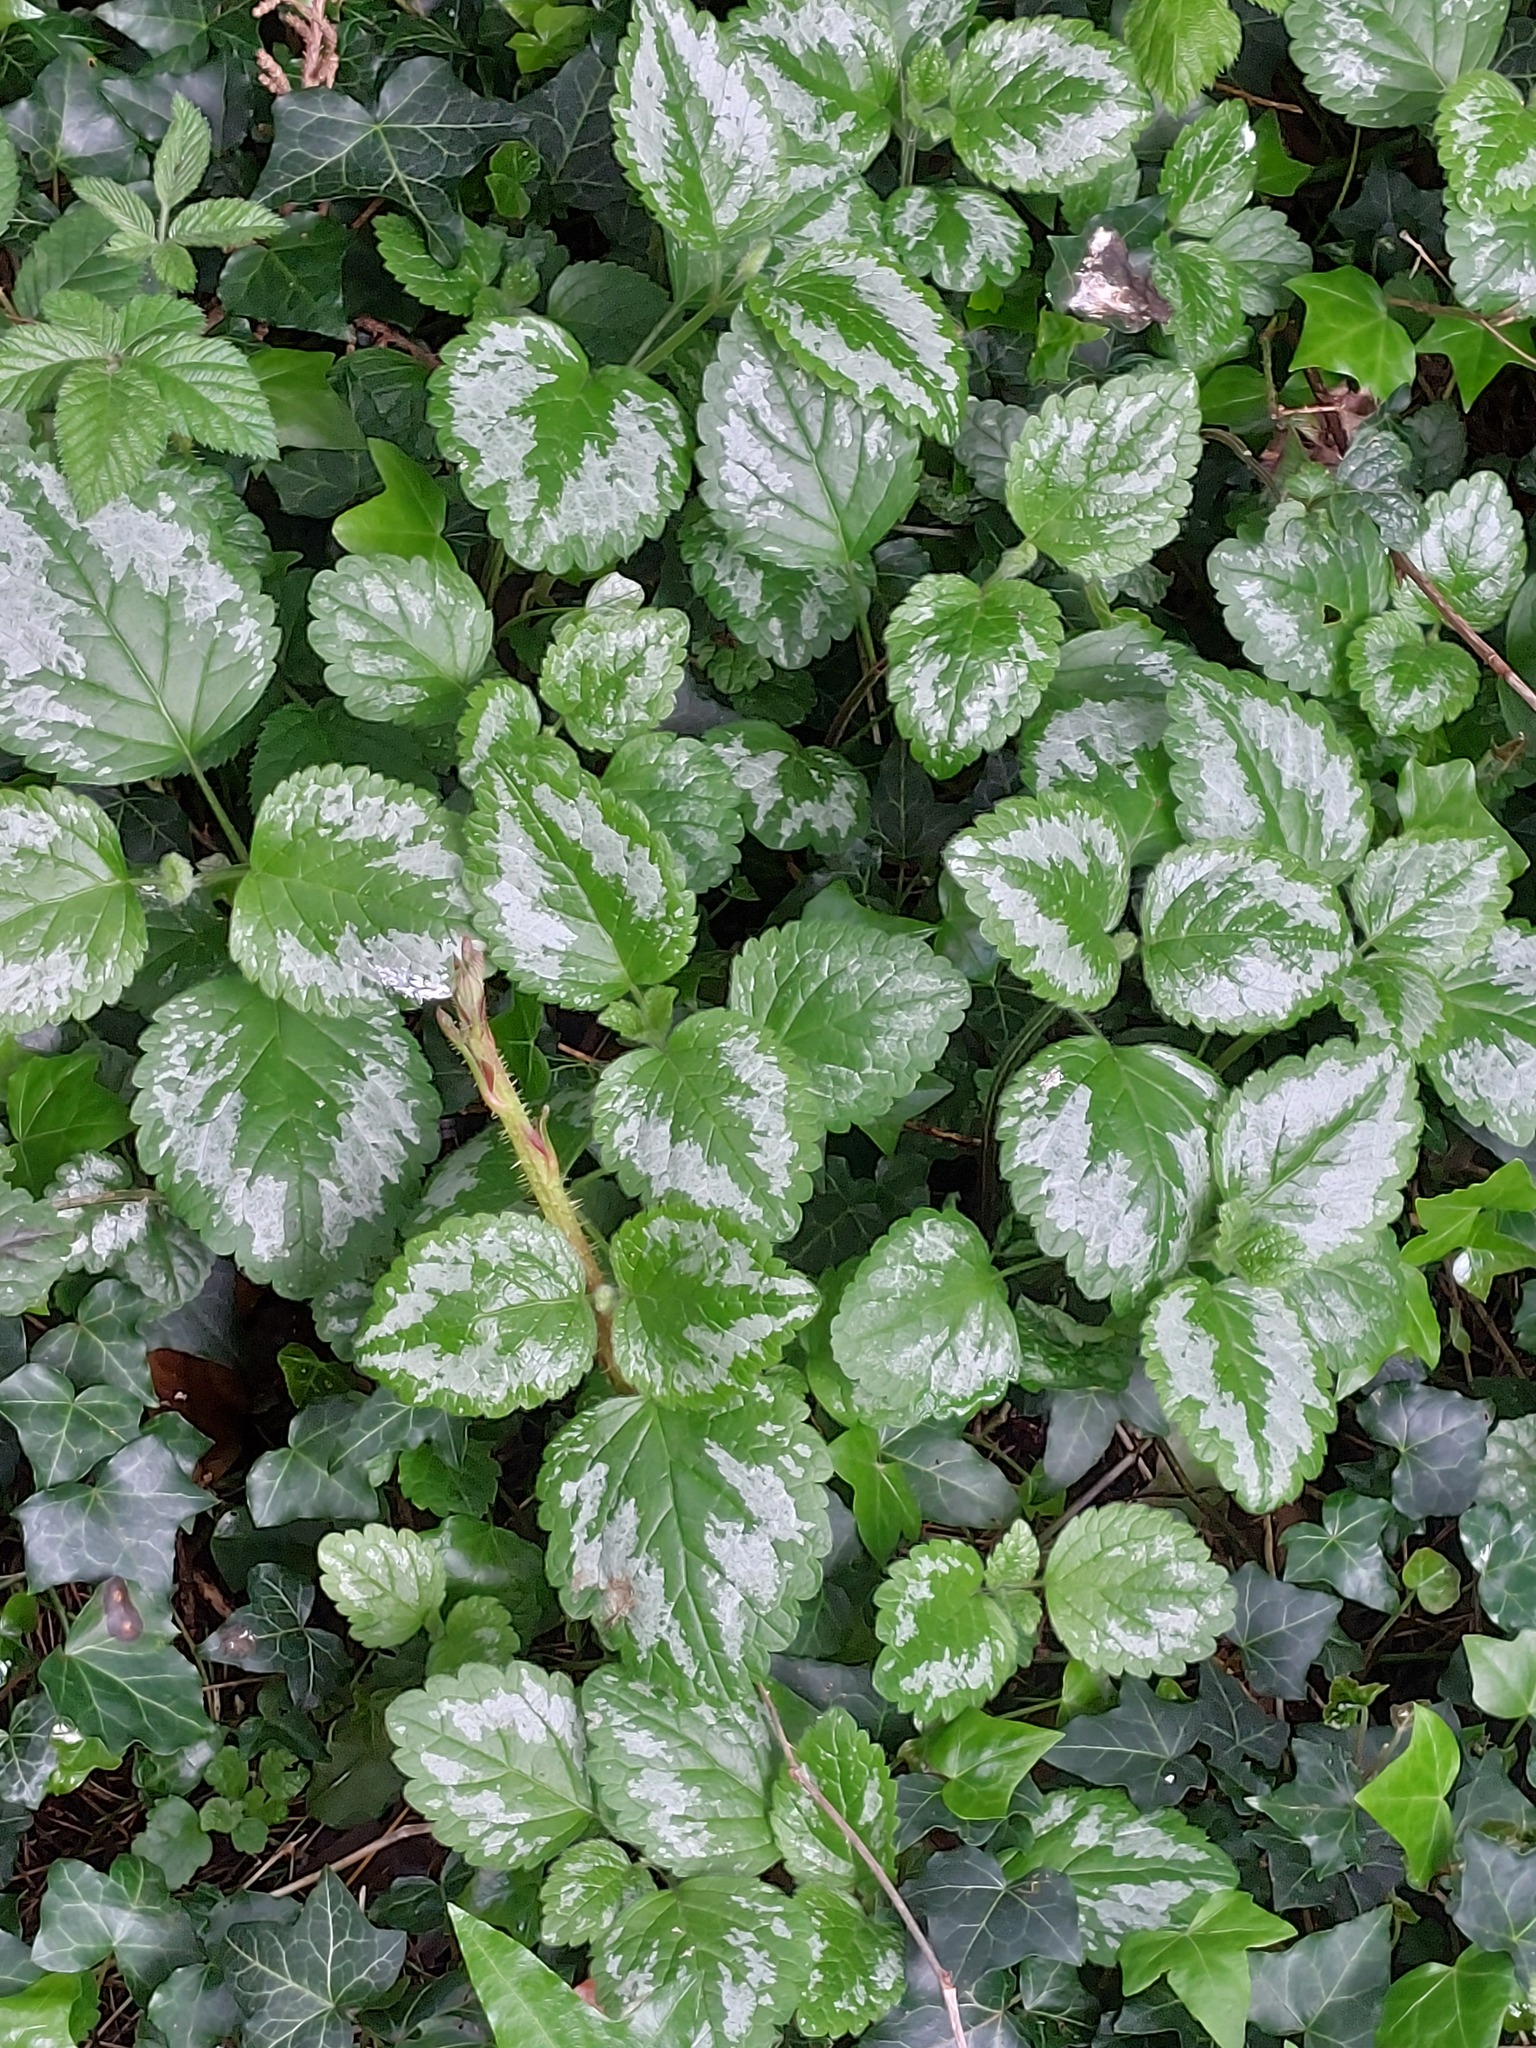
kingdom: Plantae
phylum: Tracheophyta
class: Magnoliopsida
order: Lamiales
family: Lamiaceae
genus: Lamium
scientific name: Lamium galeobdolon
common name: Yellow archangel
